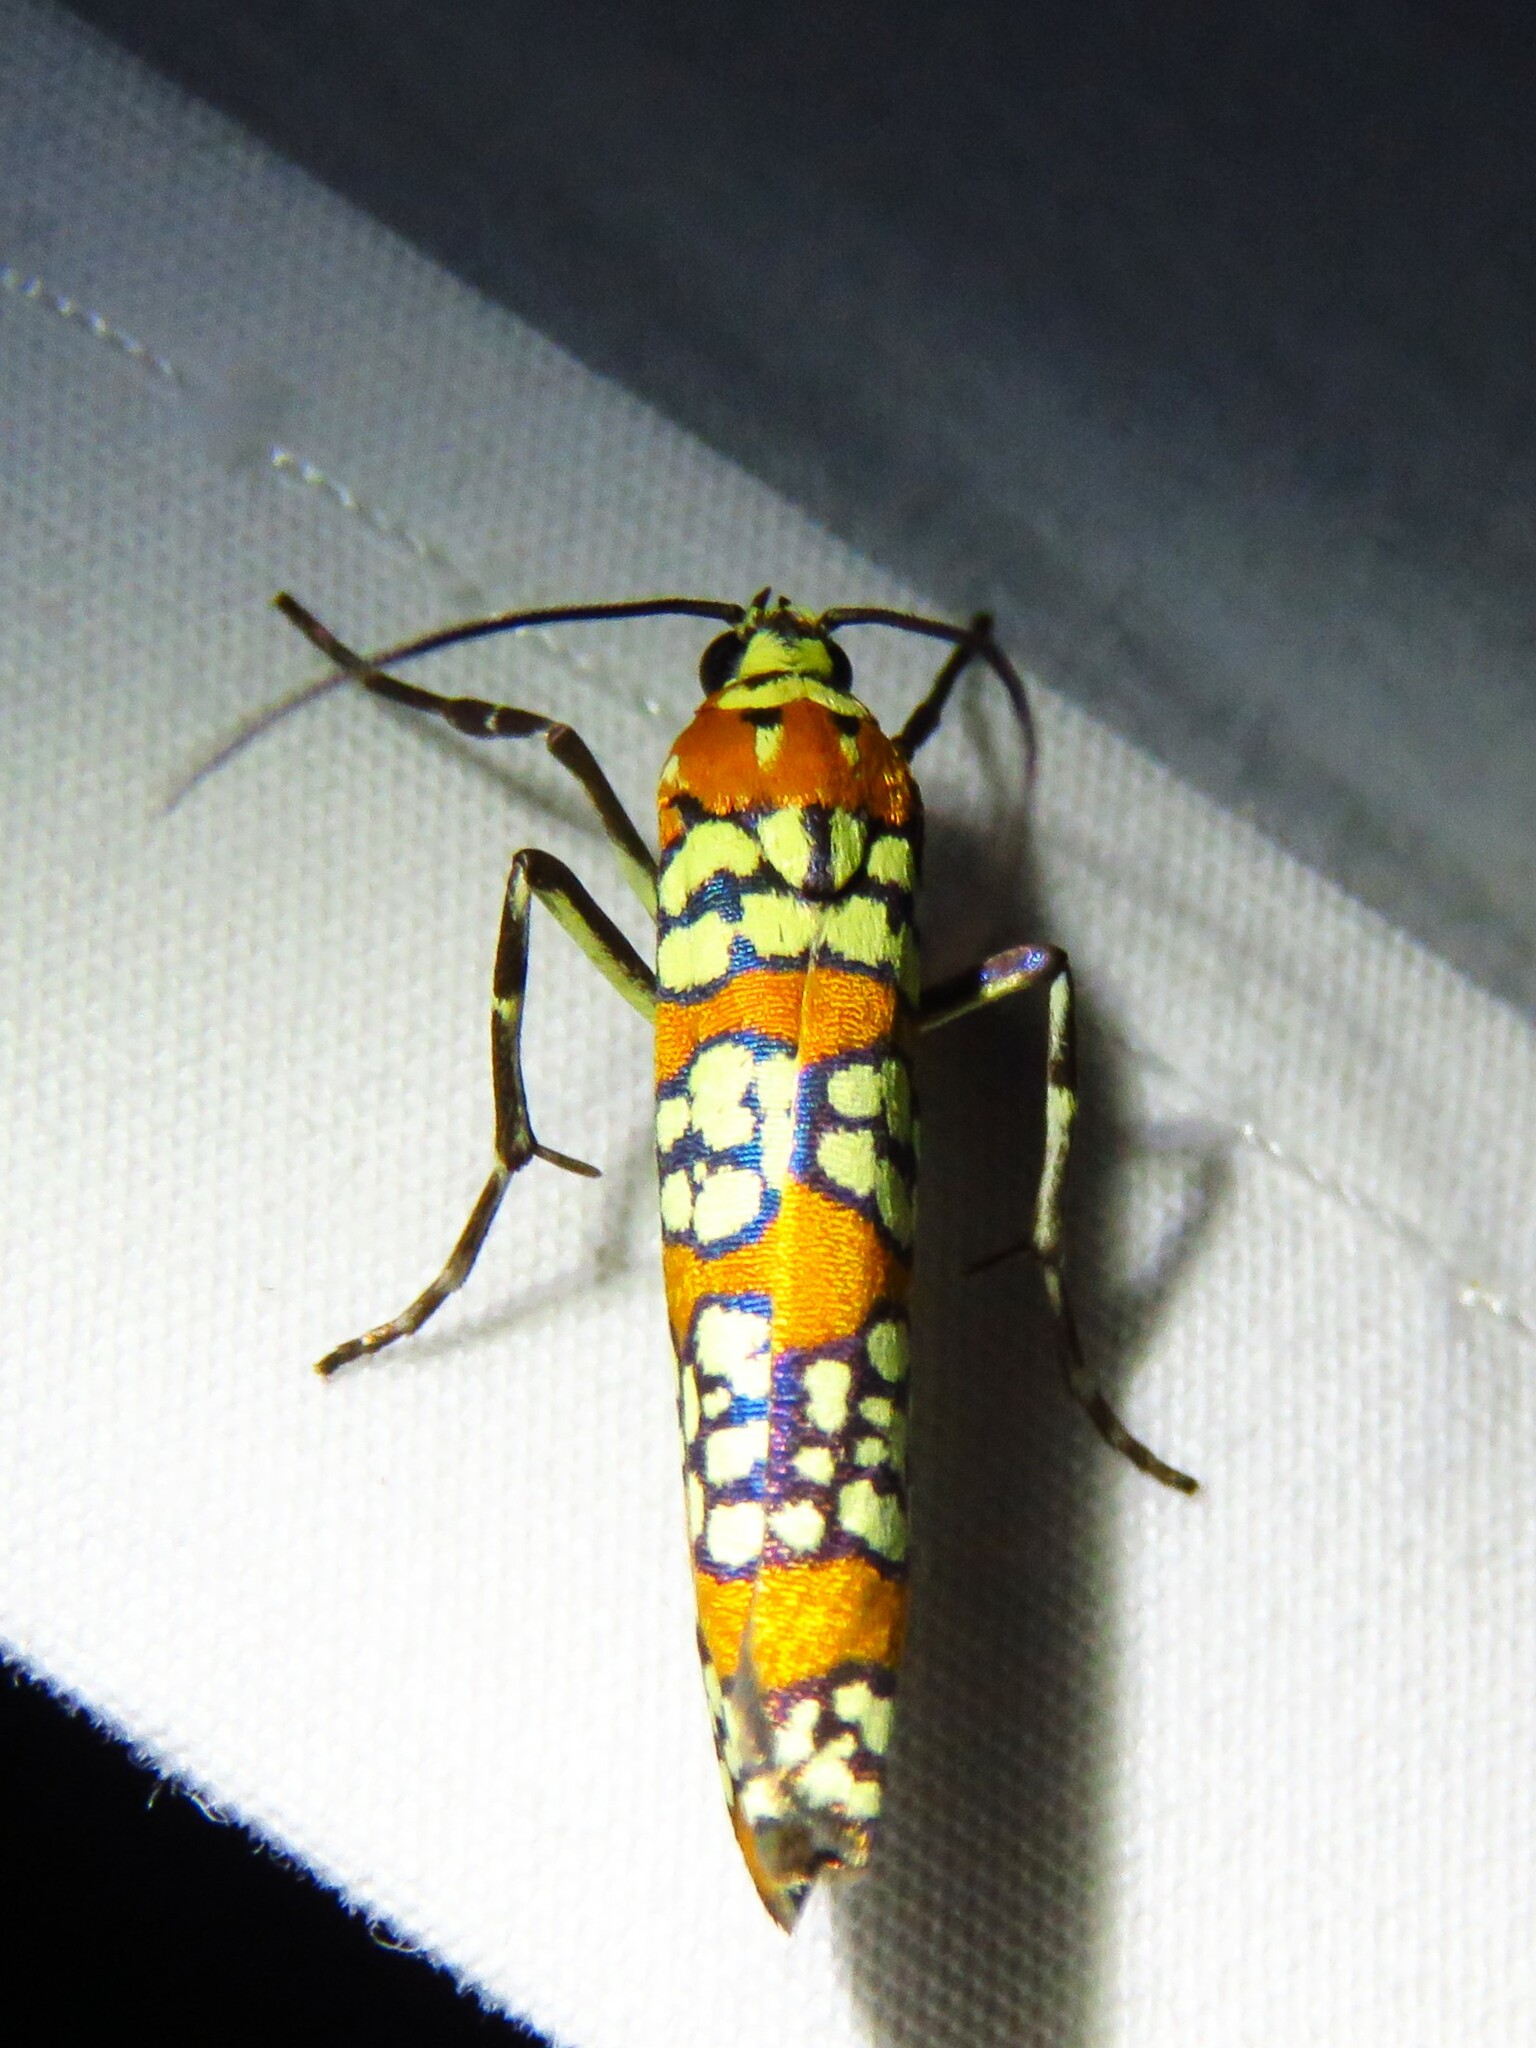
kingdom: Animalia
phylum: Arthropoda
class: Insecta
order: Lepidoptera
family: Attevidae
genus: Atteva
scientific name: Atteva punctella
